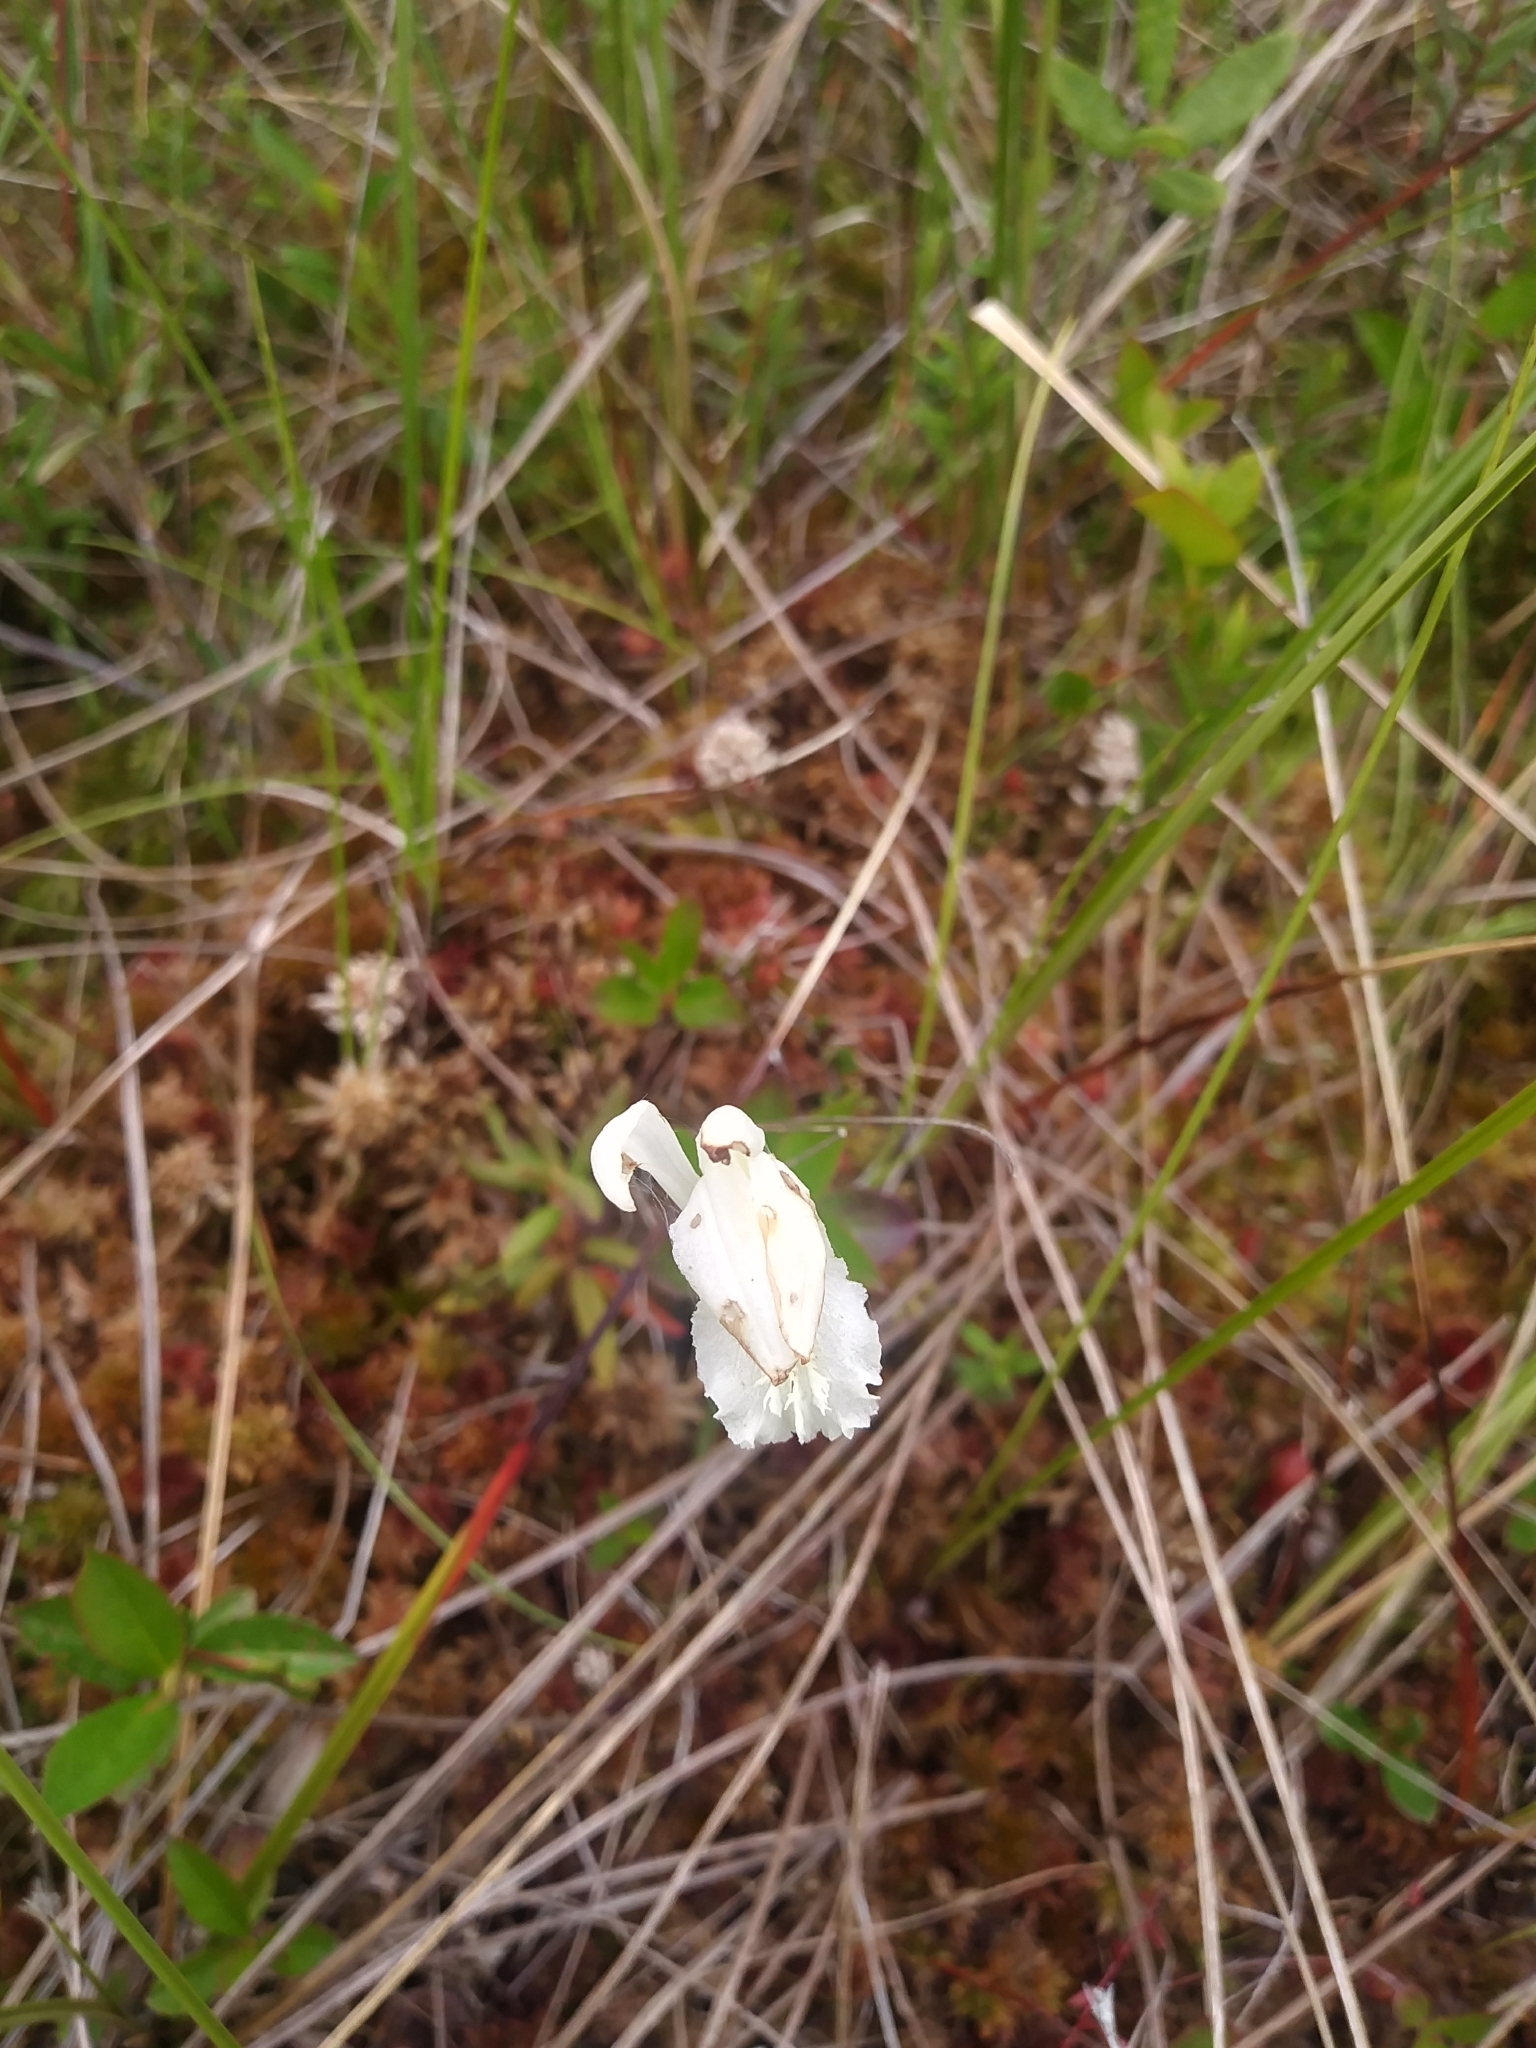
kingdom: Plantae
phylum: Tracheophyta
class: Liliopsida
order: Asparagales
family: Orchidaceae
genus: Arethusa
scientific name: Arethusa bulbosa
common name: Arethusa
